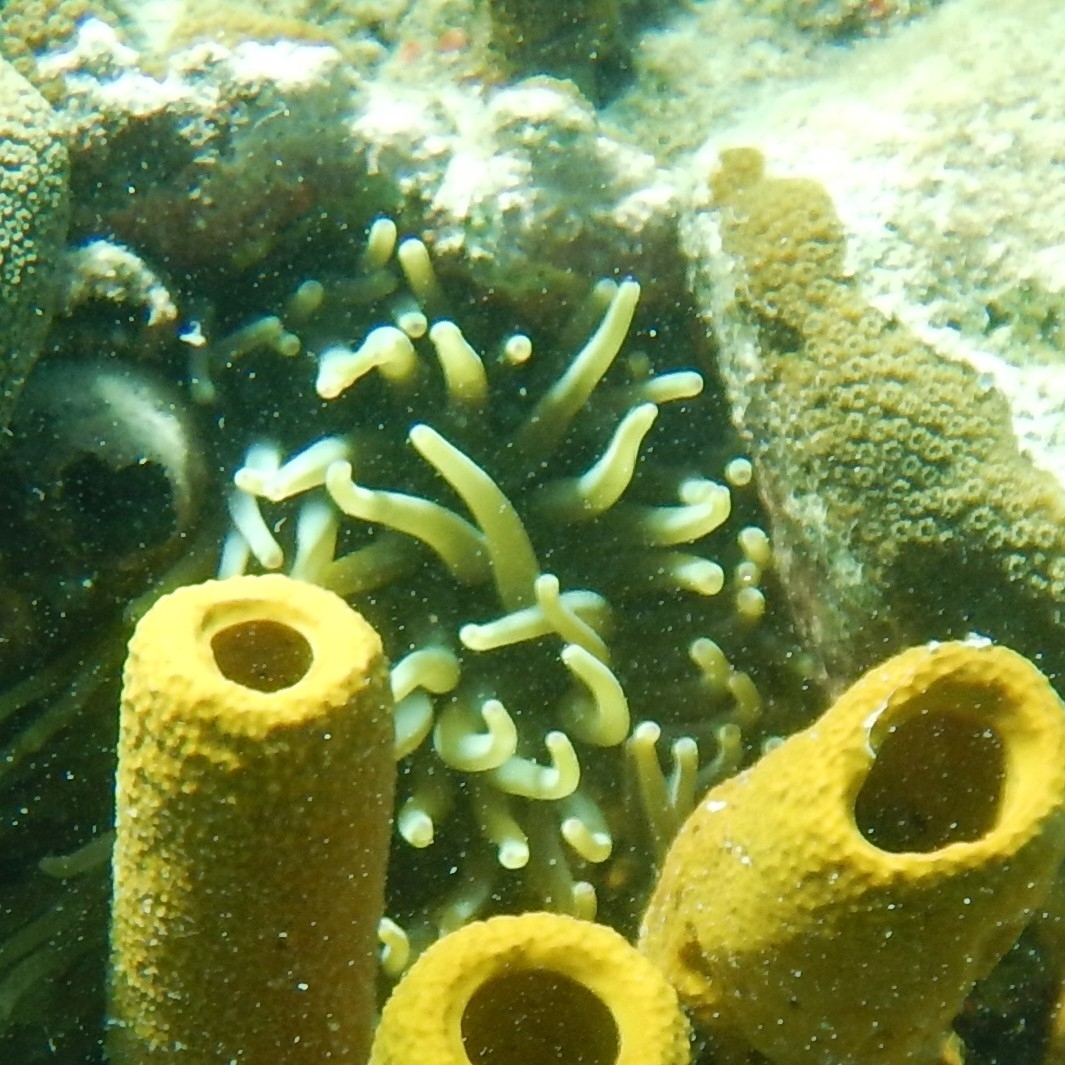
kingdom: Animalia
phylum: Cnidaria
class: Anthozoa
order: Actiniaria
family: Actiniidae
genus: Condylactis
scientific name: Condylactis gigantea
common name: Giant caribbean anemone
